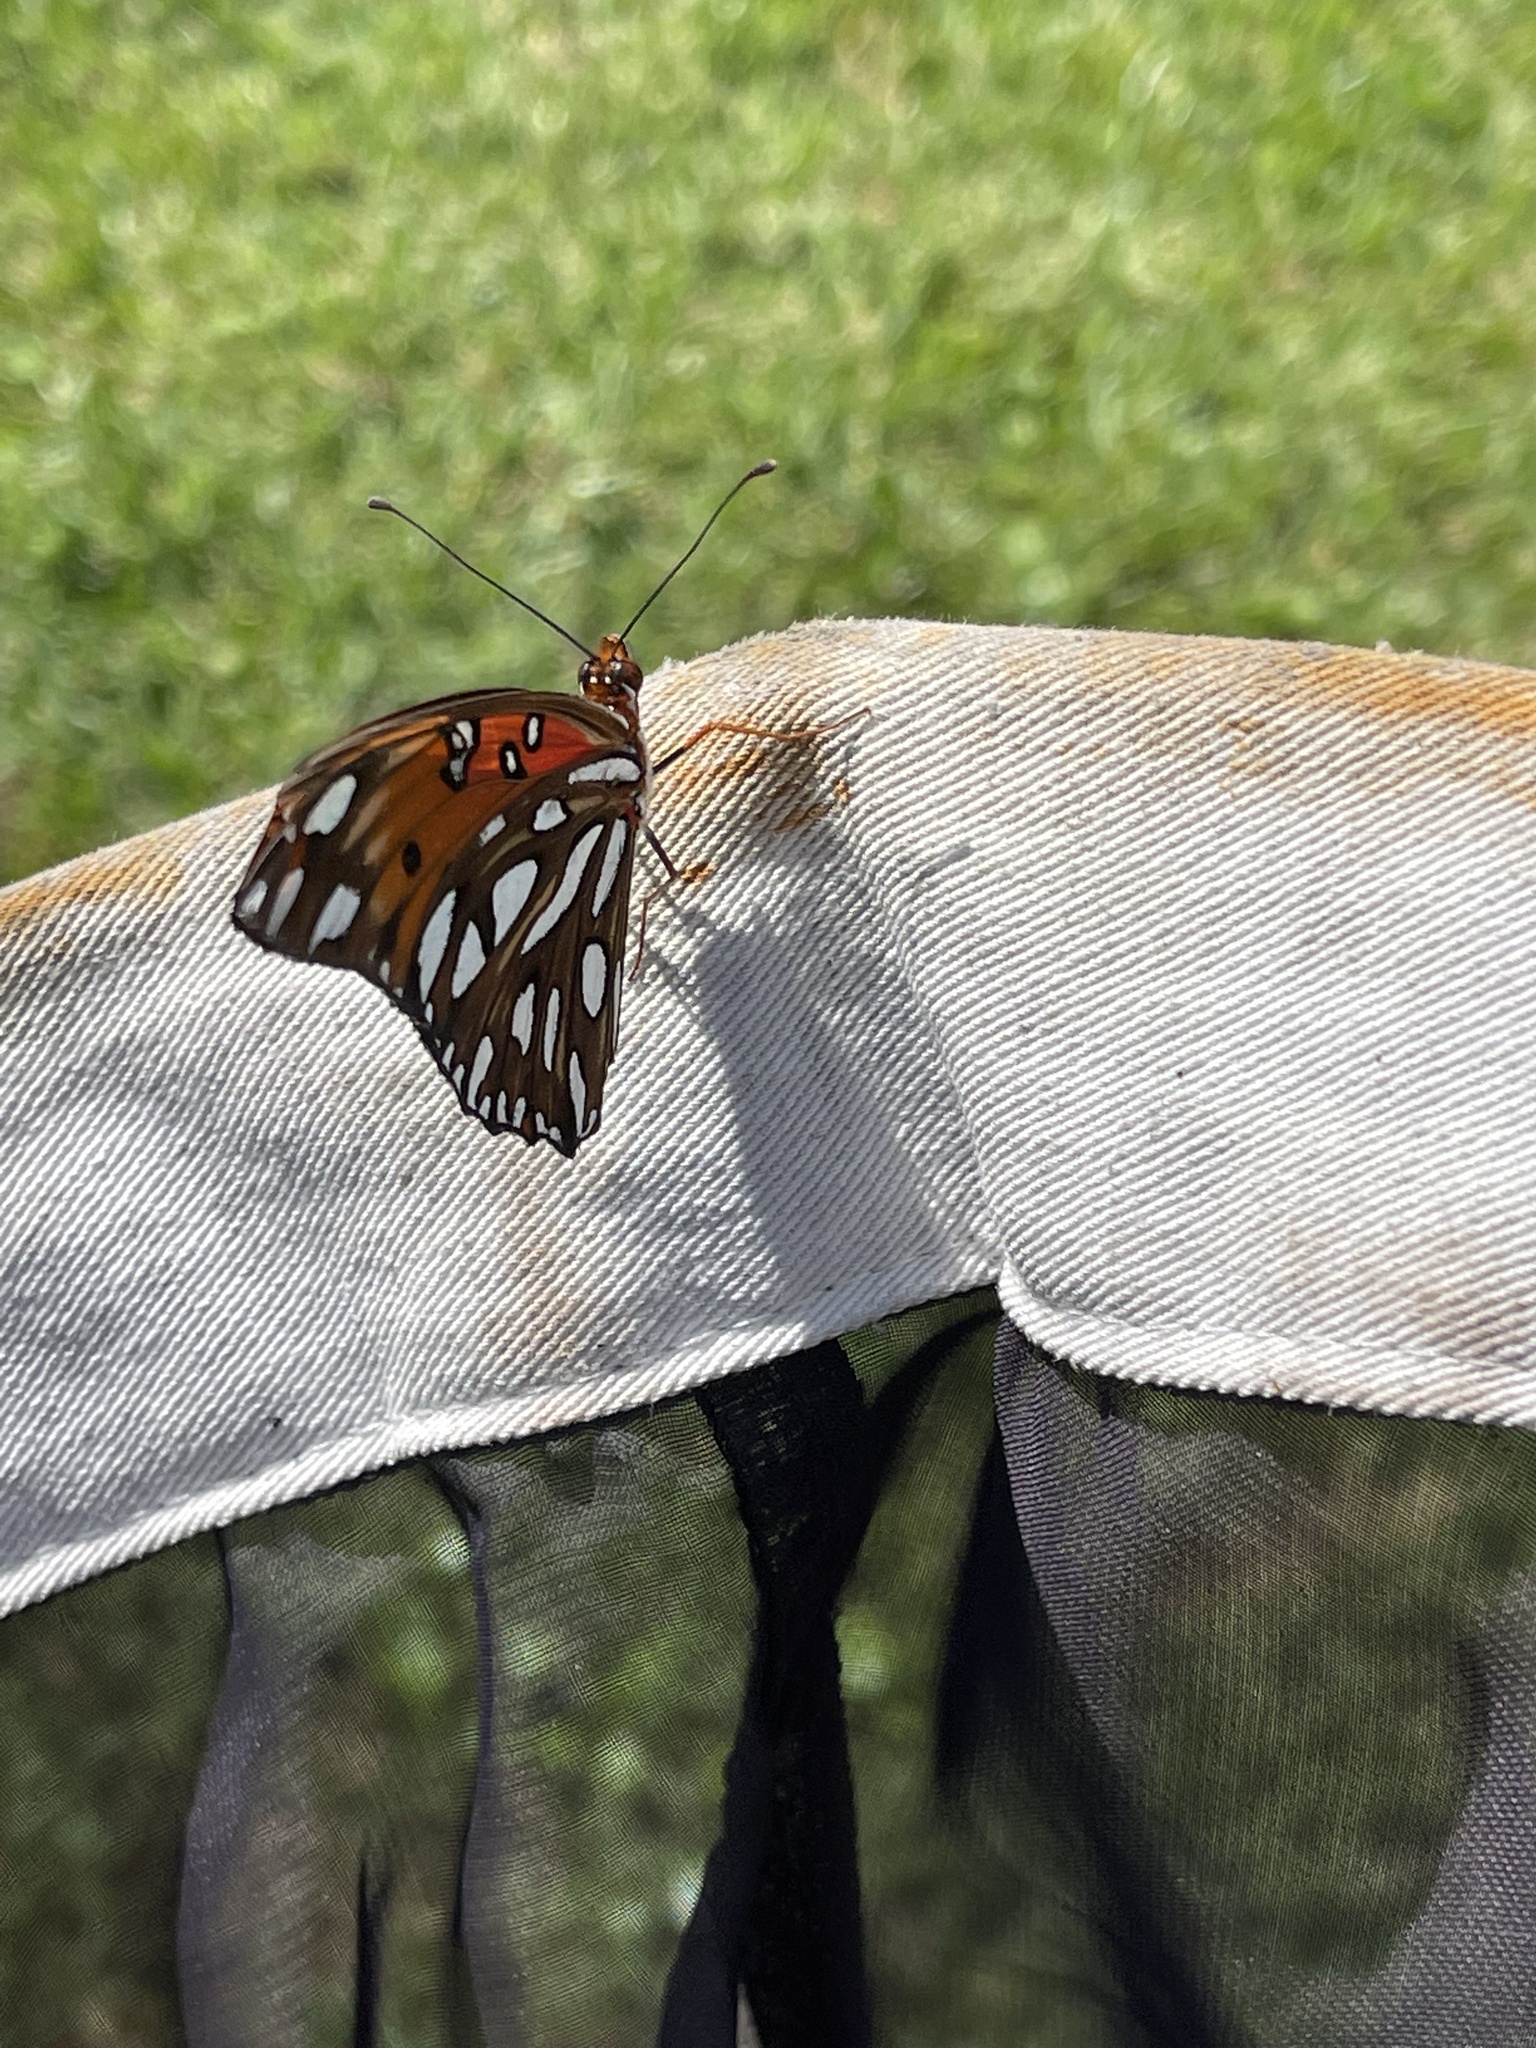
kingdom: Animalia
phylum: Arthropoda
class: Insecta
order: Lepidoptera
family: Nymphalidae
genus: Dione
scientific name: Dione vanillae
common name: Gulf fritillary
